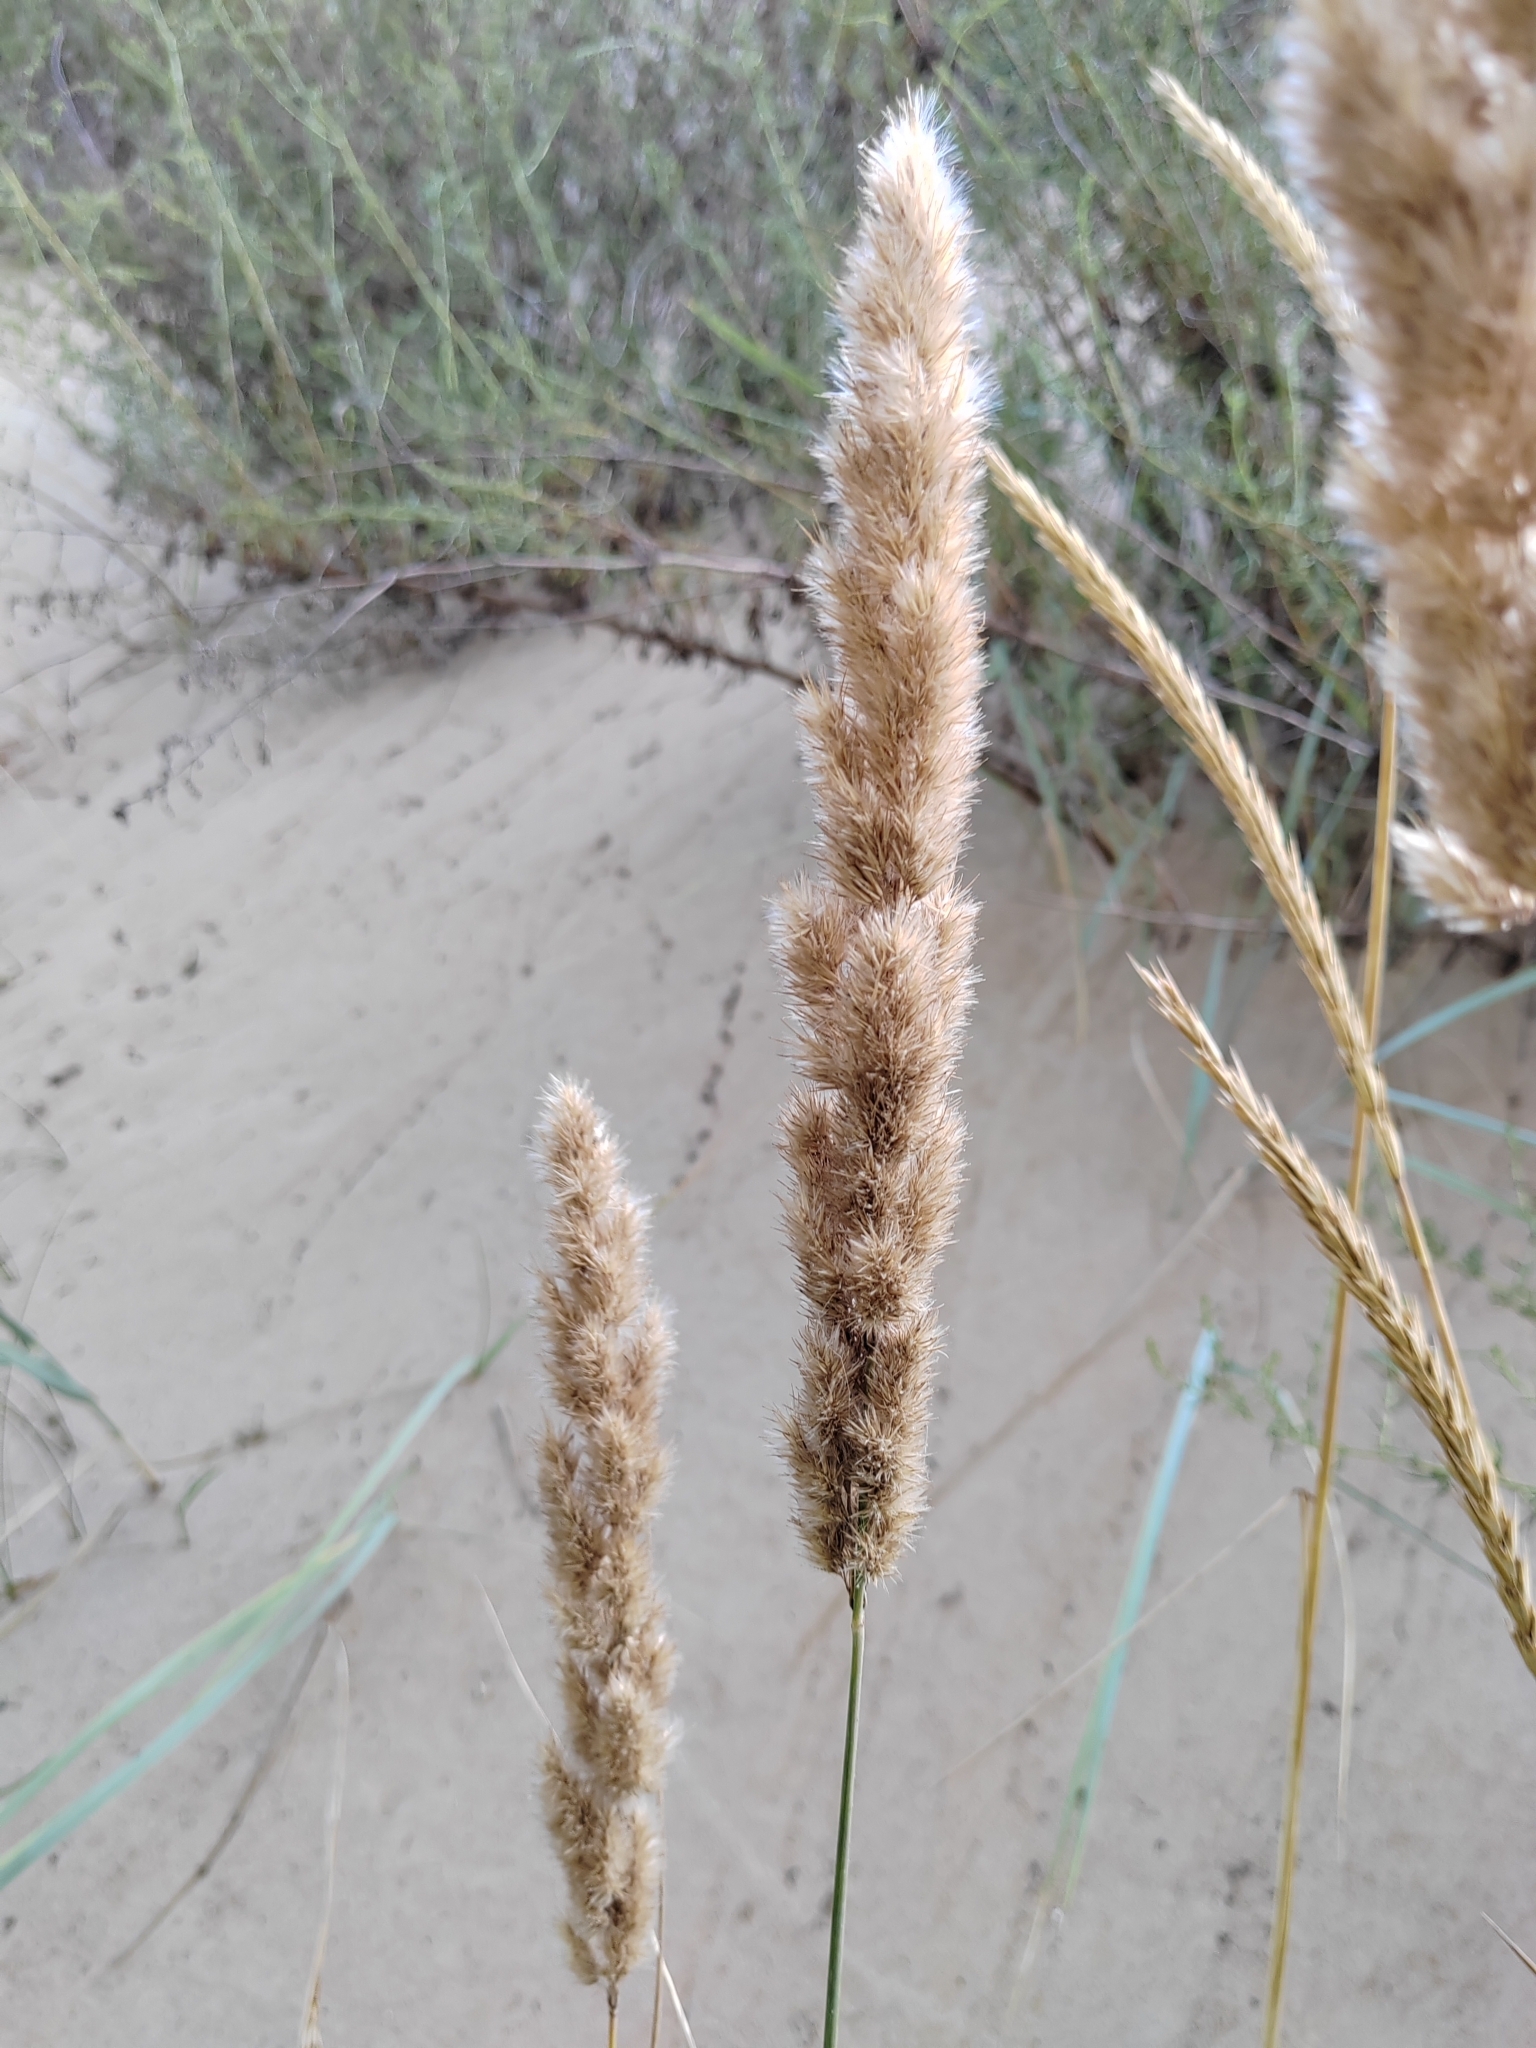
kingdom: Plantae
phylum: Tracheophyta
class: Liliopsida
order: Poales
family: Poaceae
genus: Calamagrostis
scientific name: Calamagrostis epigejos
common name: Wood small-reed
